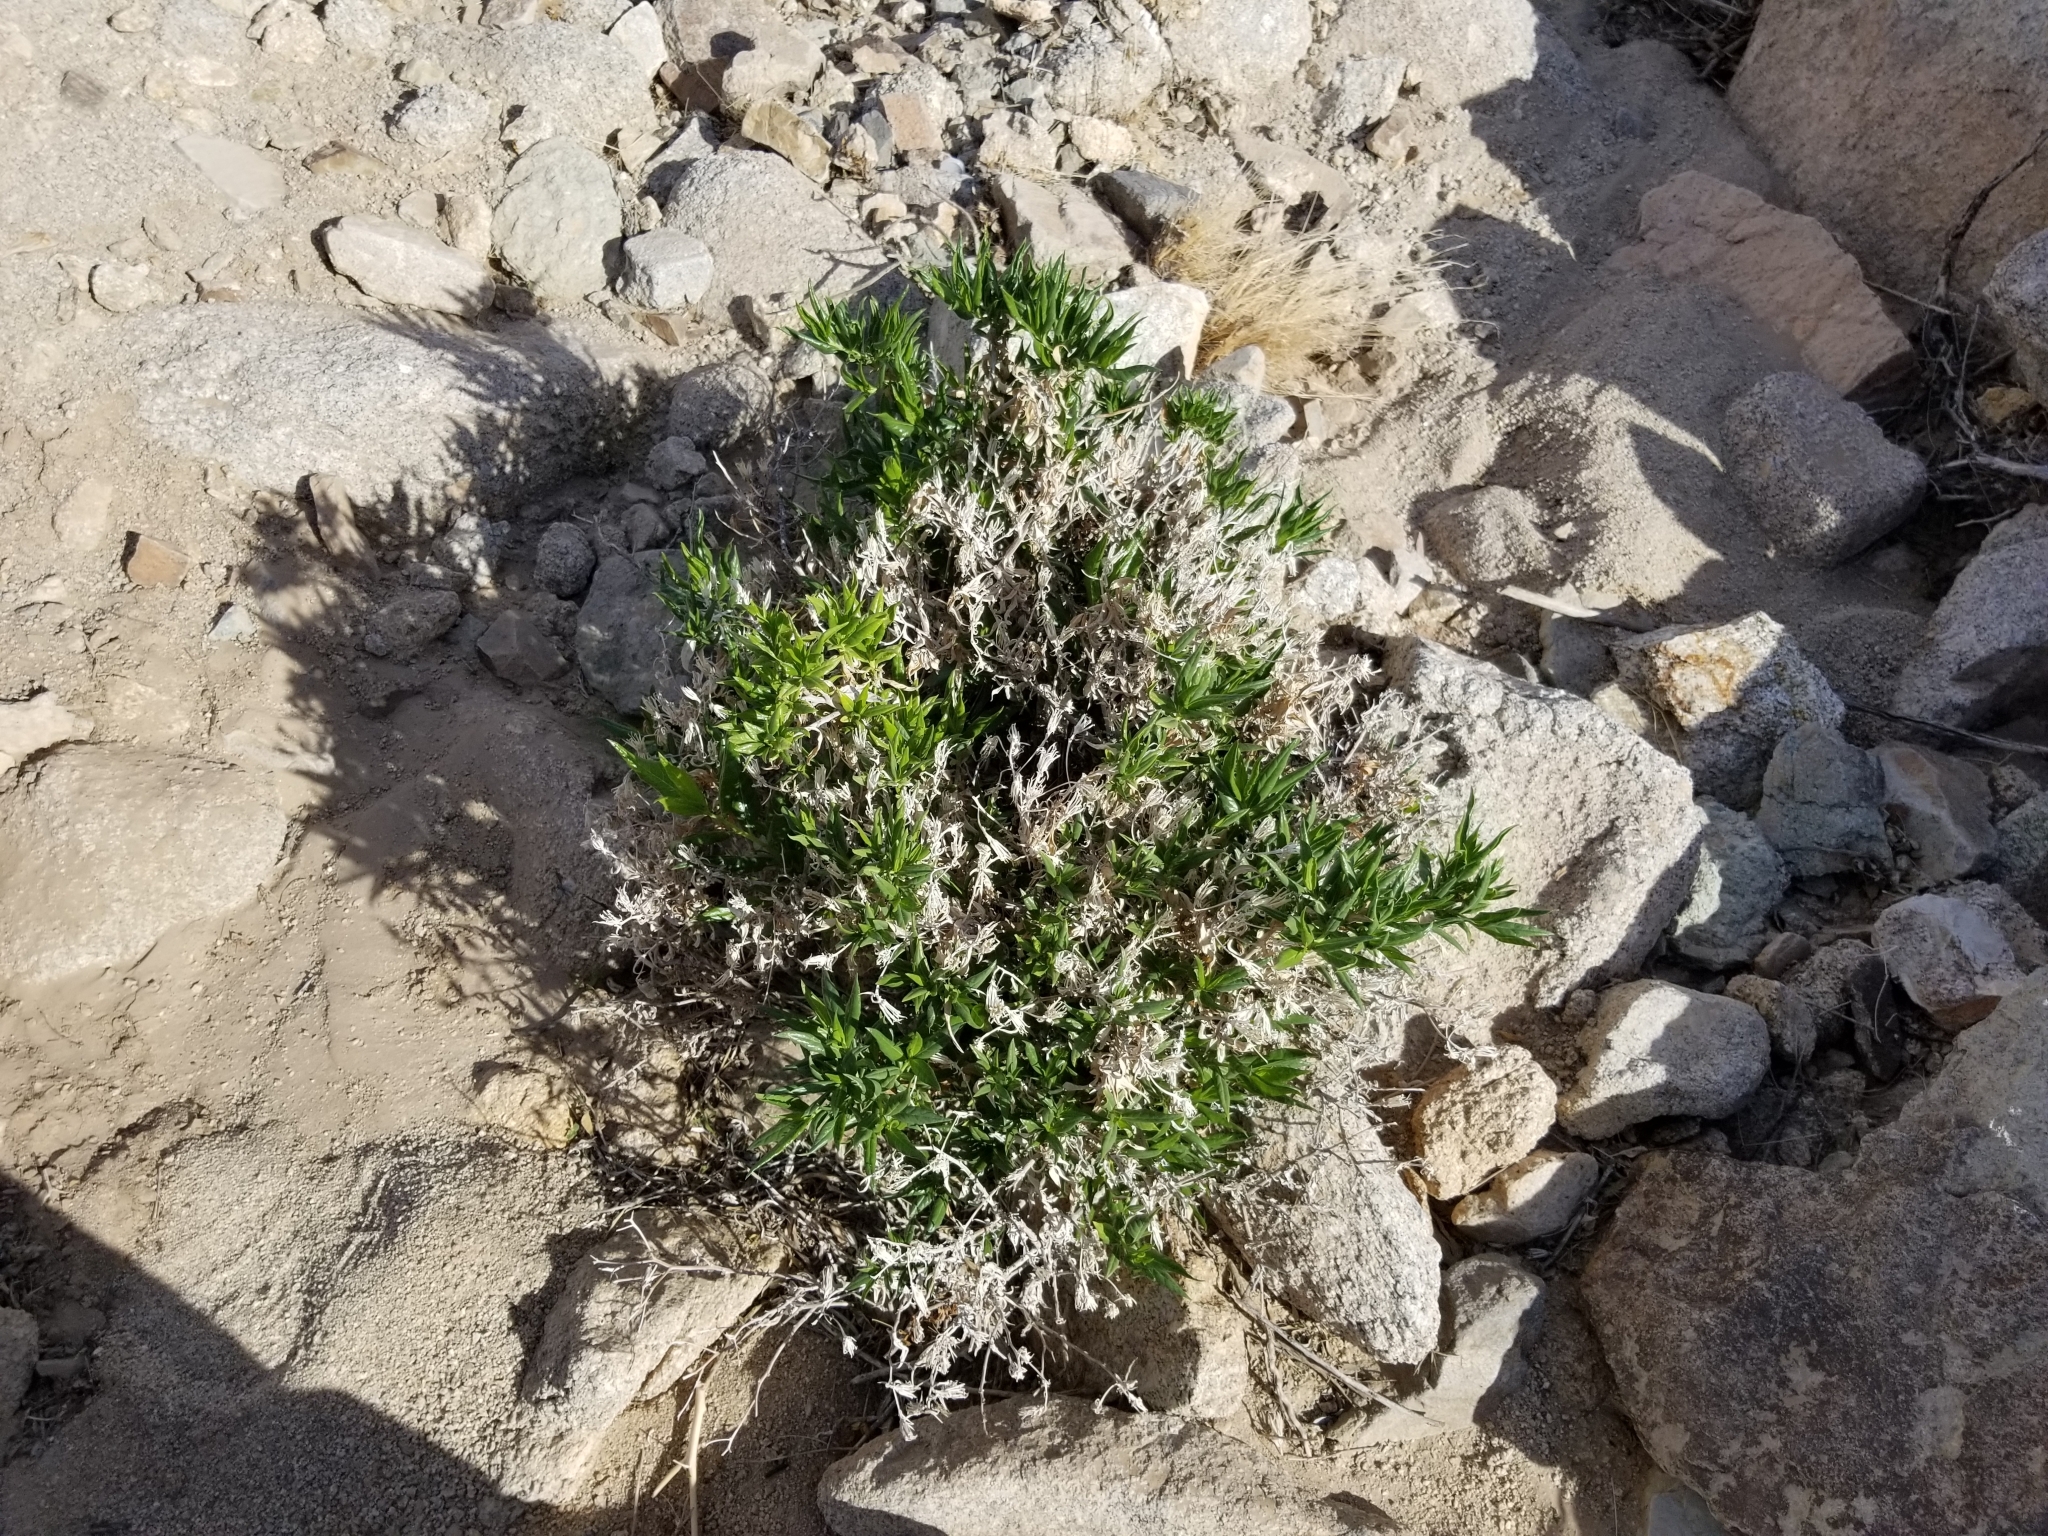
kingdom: Plantae
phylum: Tracheophyta
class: Magnoliopsida
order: Asterales
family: Asteraceae
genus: Trixis
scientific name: Trixis californica
